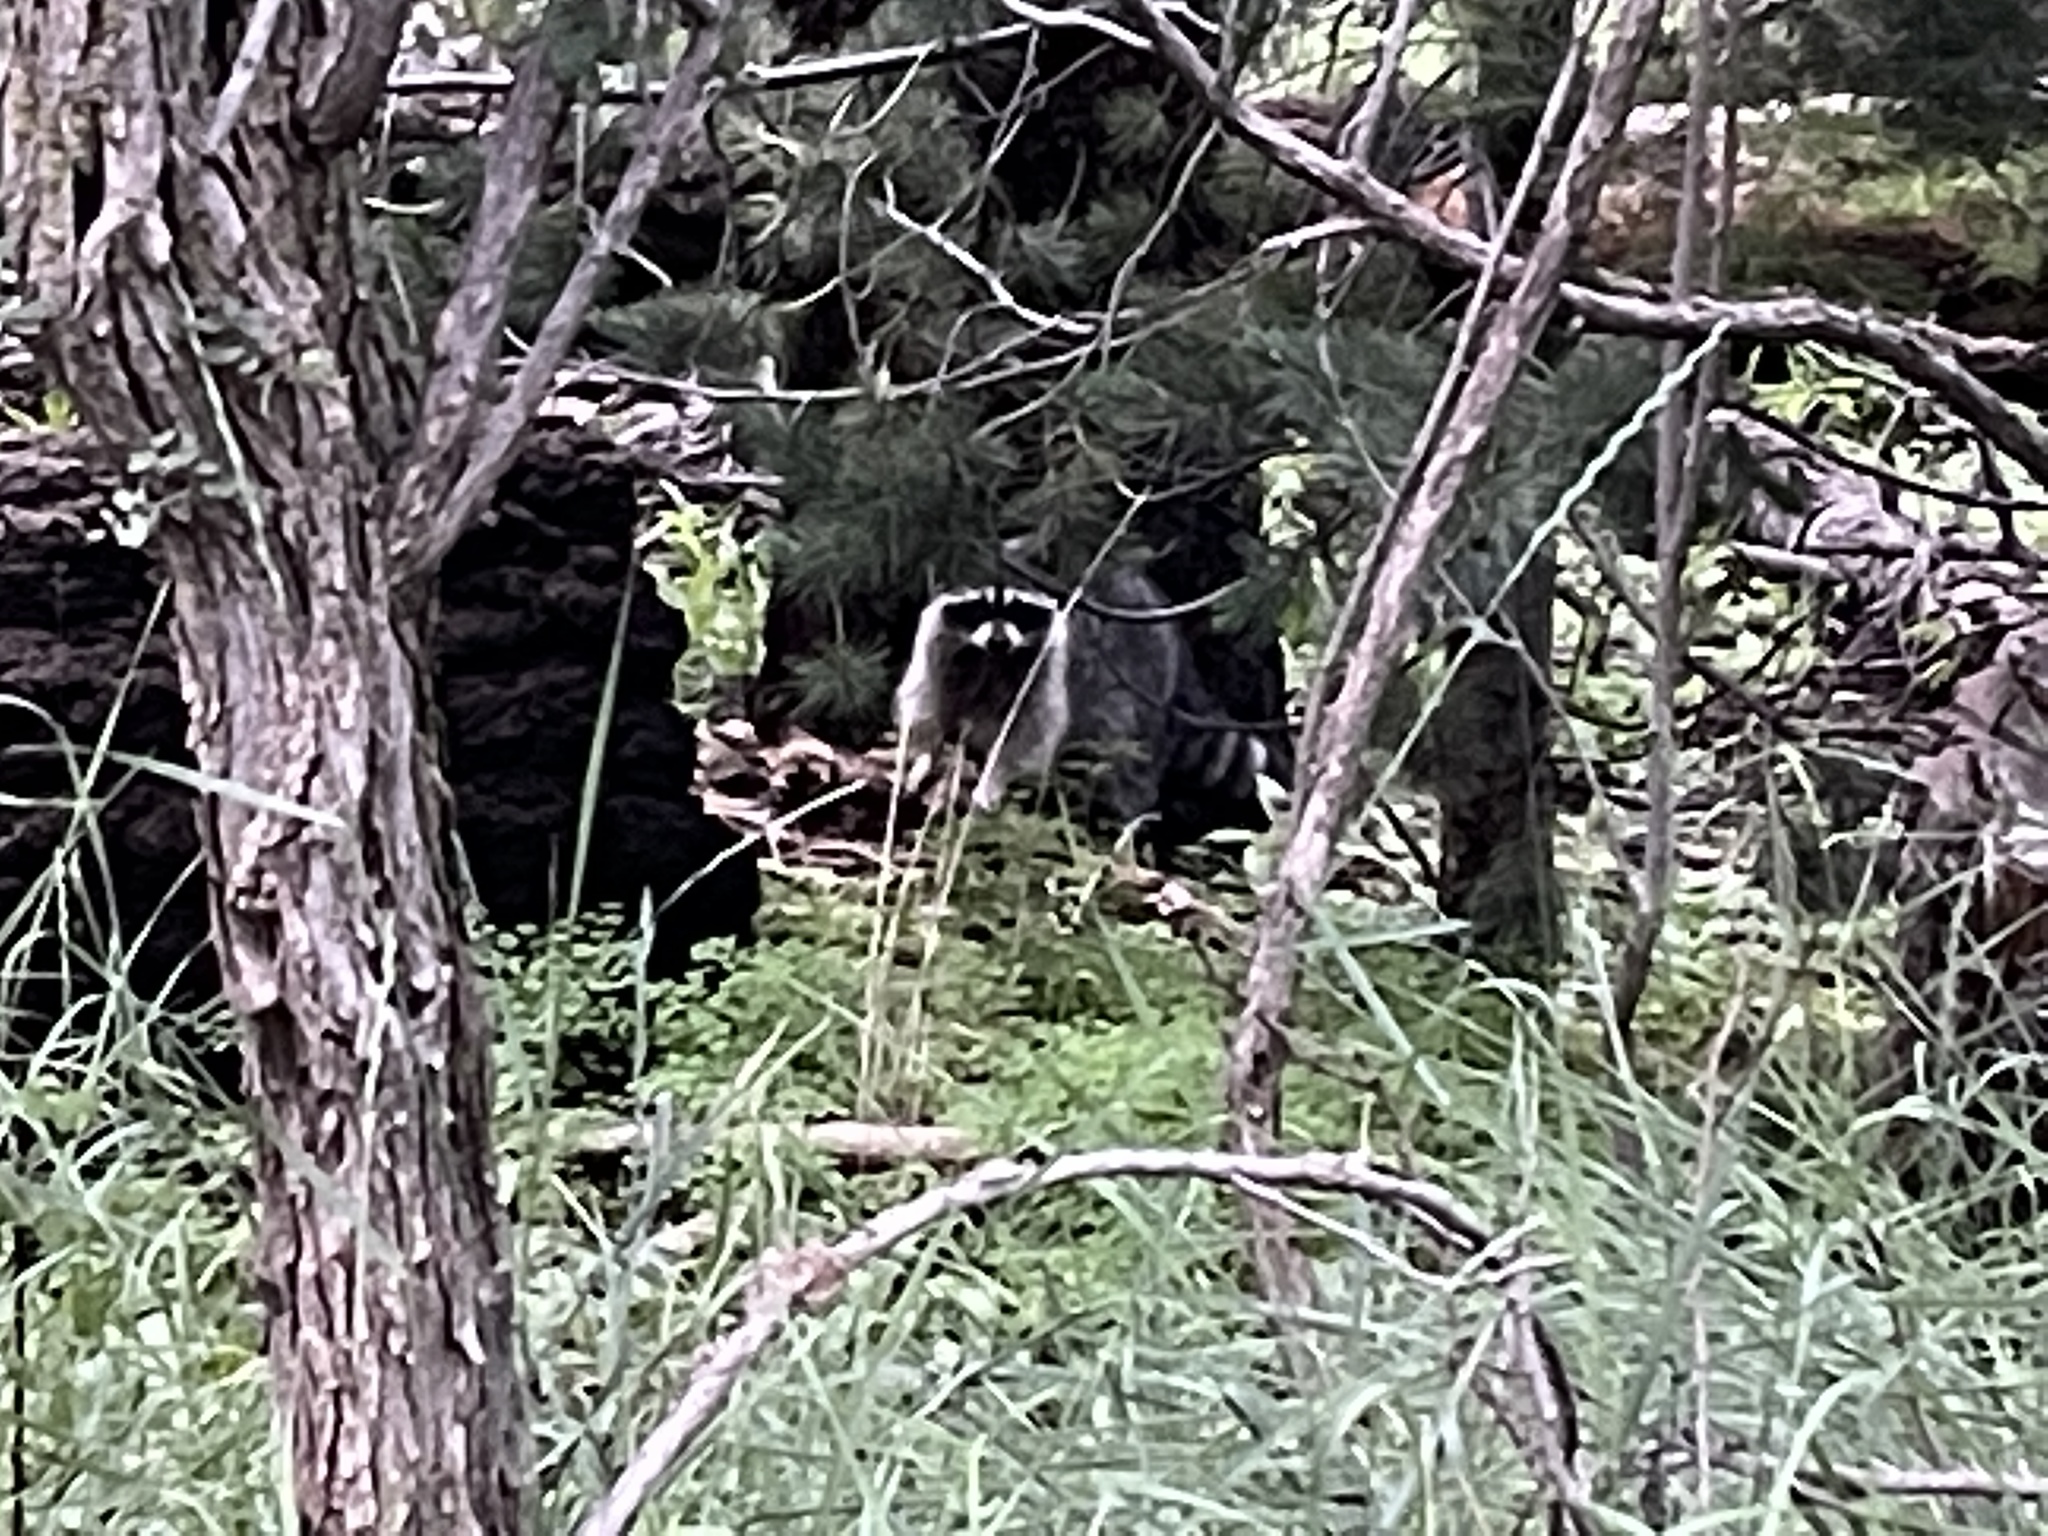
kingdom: Animalia
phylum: Chordata
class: Mammalia
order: Carnivora
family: Procyonidae
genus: Procyon
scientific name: Procyon lotor
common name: Raccoon
